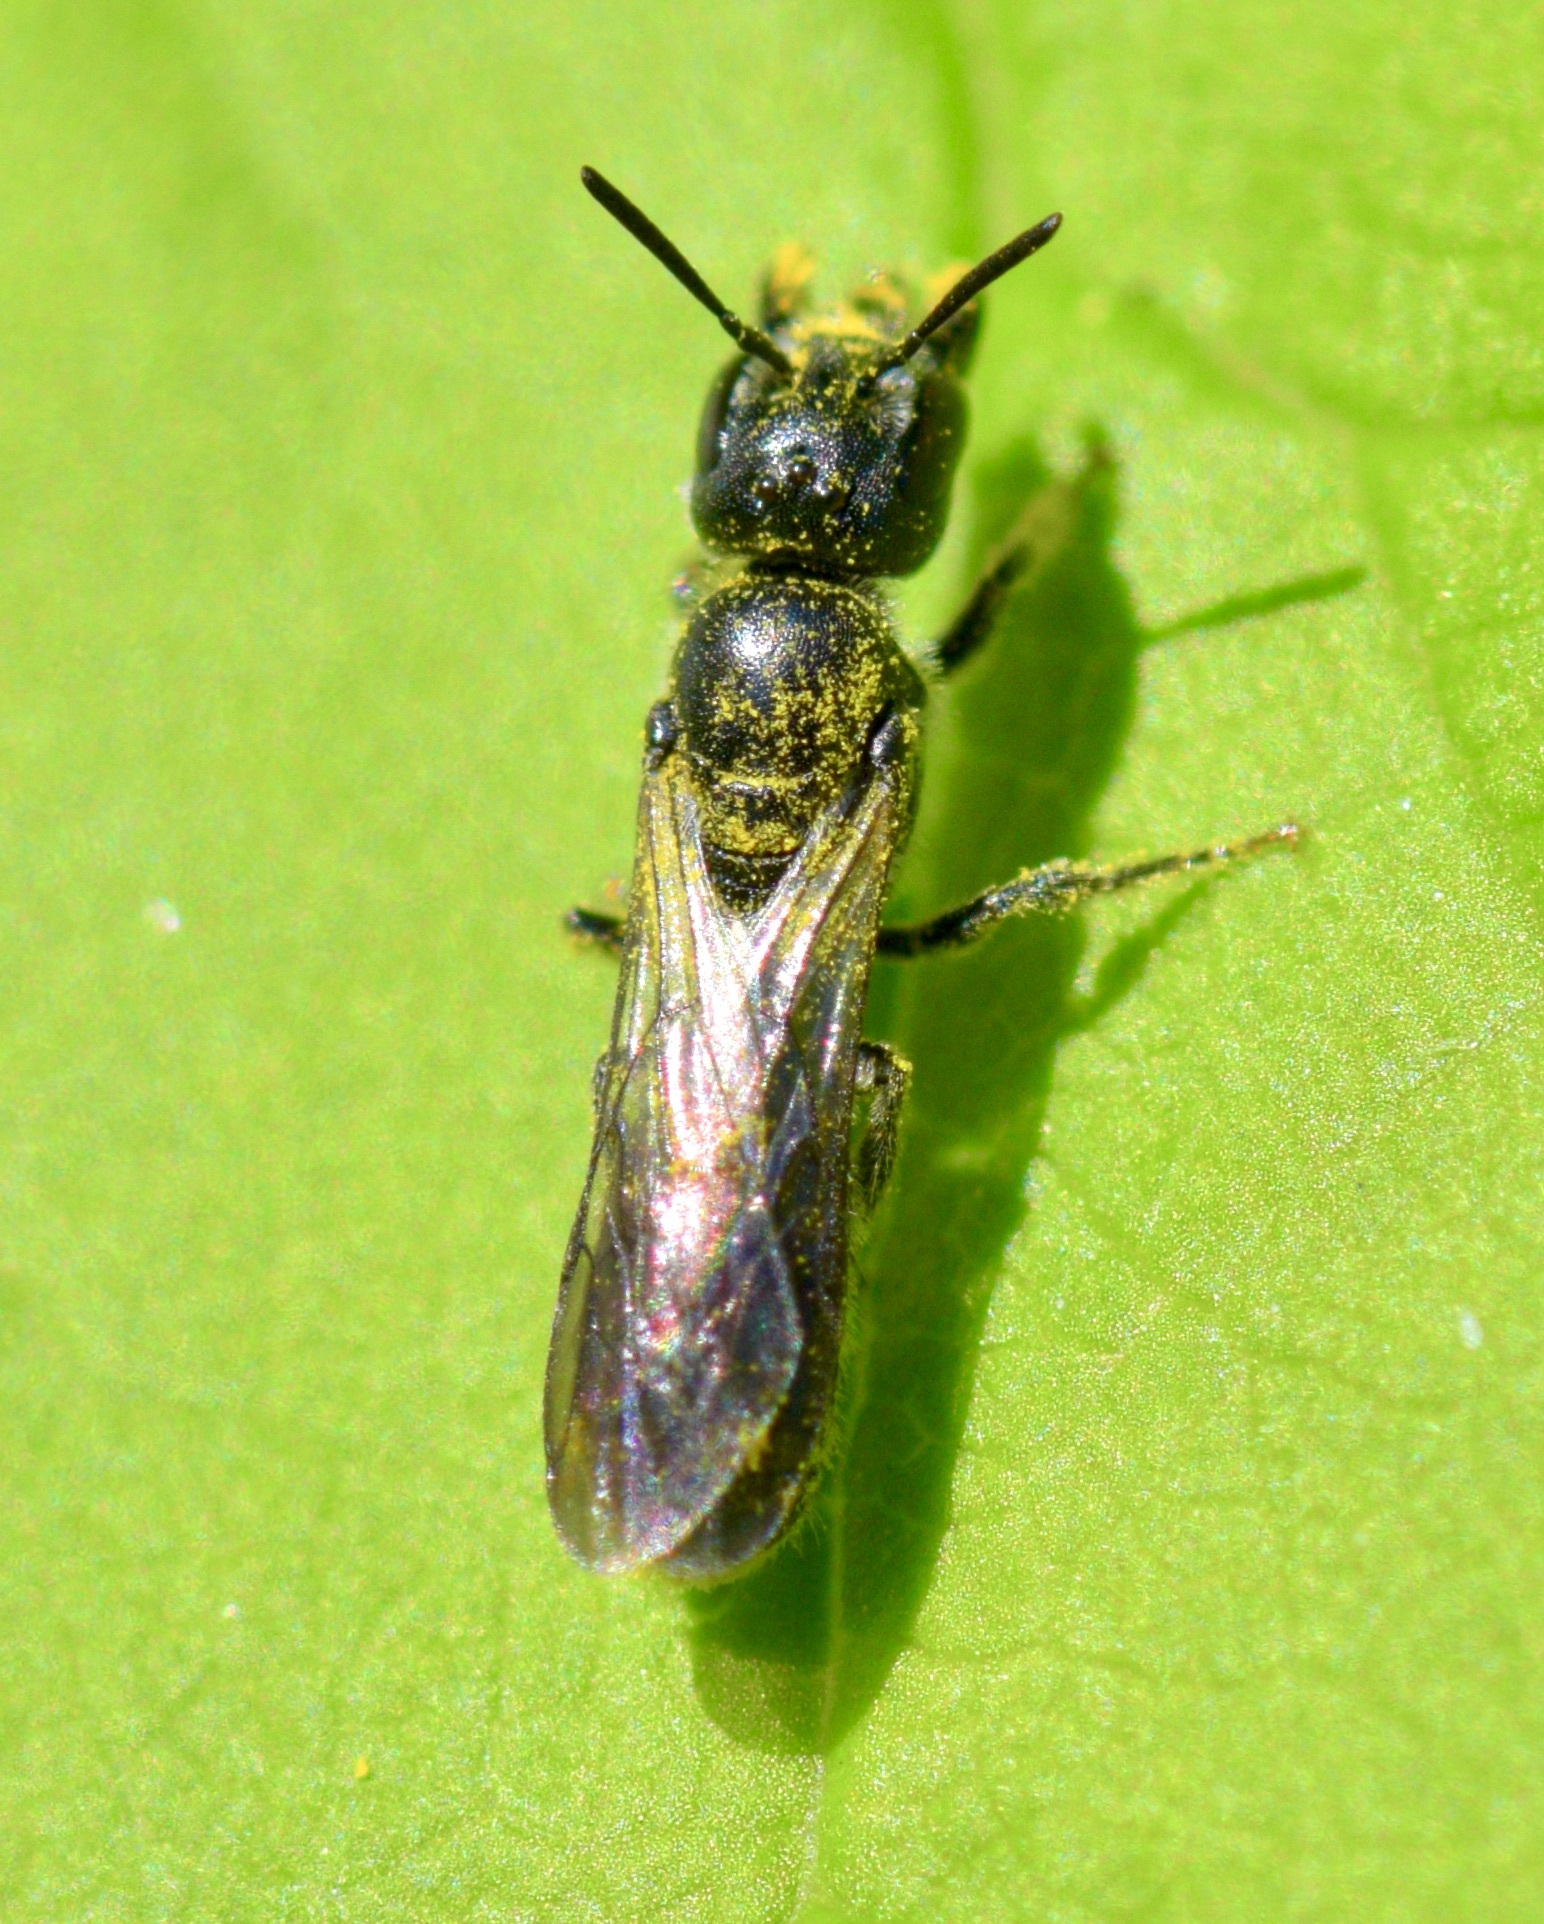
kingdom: Animalia
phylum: Arthropoda
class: Insecta
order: Hymenoptera
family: Megachilidae
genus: Chelostoma
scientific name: Chelostoma philadelphi
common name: Mock-orange scissor bee
